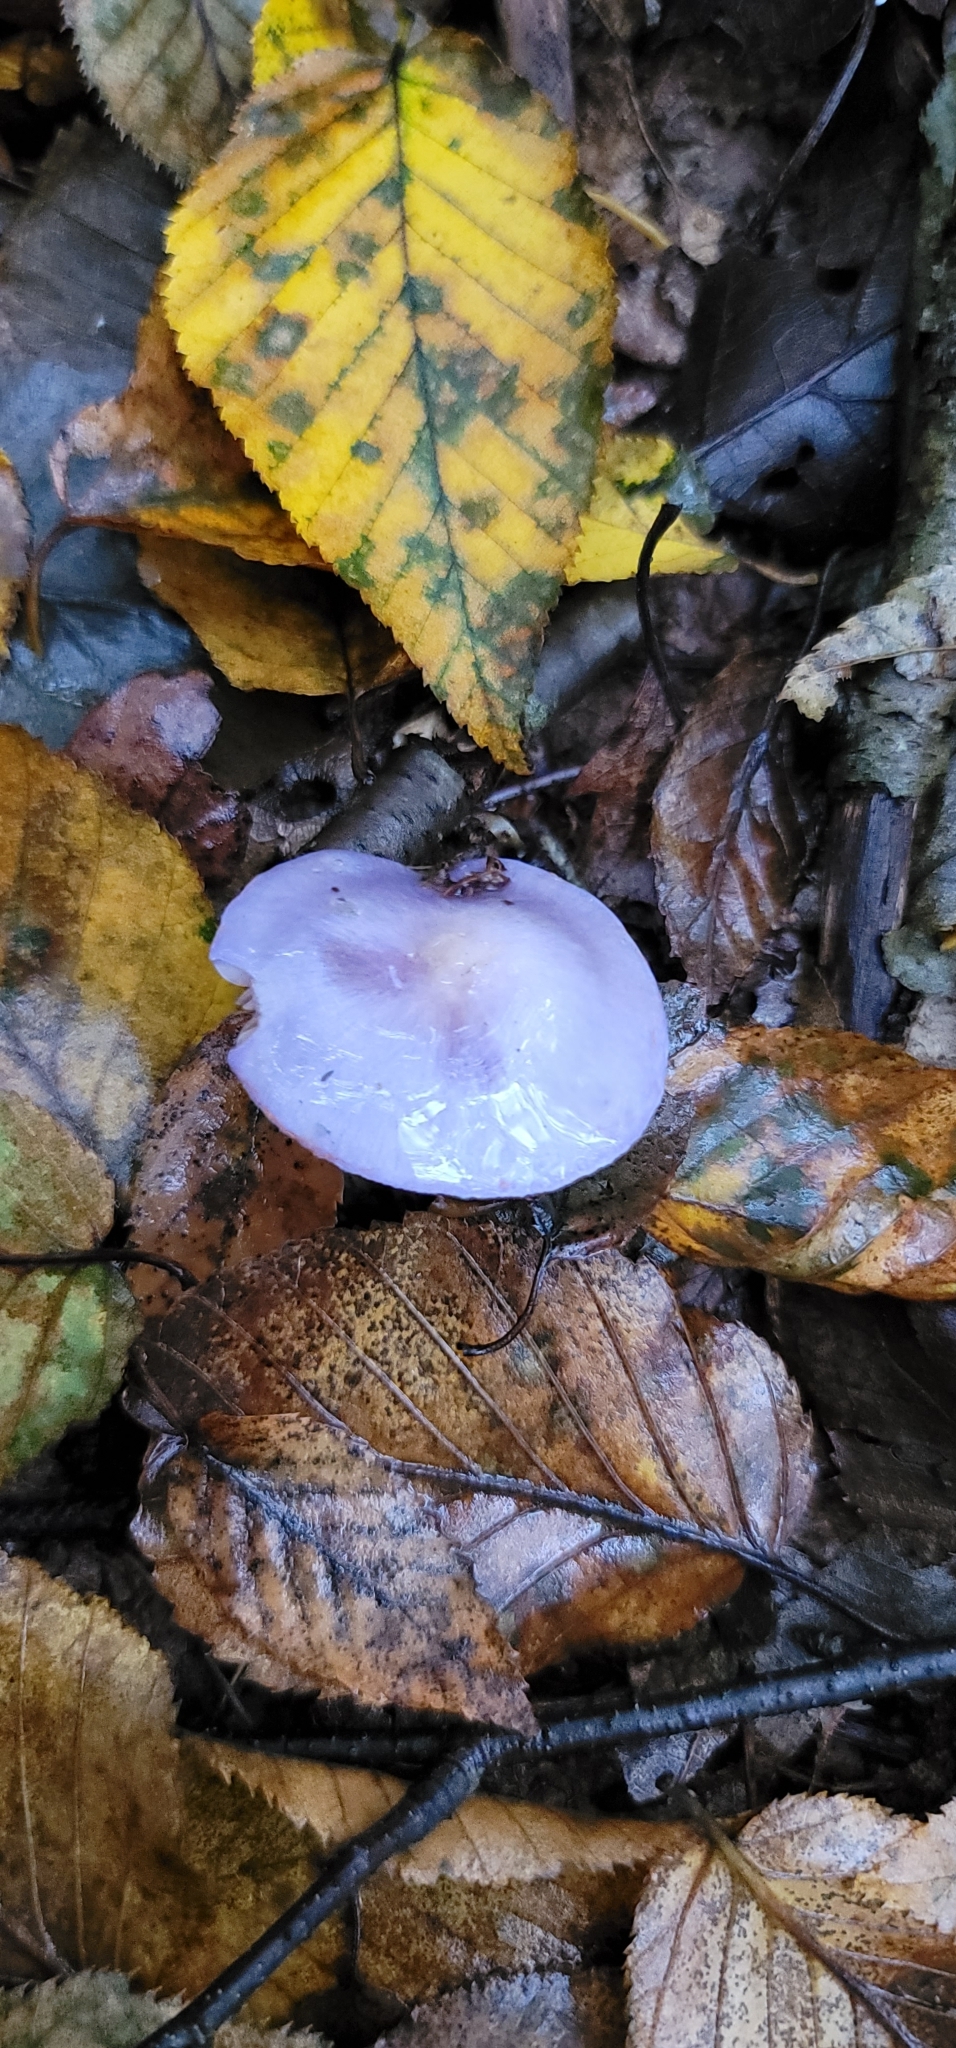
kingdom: Fungi
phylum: Basidiomycota
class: Agaricomycetes
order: Agaricales
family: Cortinariaceae
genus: Cortinarius
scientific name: Cortinarius iodes
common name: Viscid violet cort
